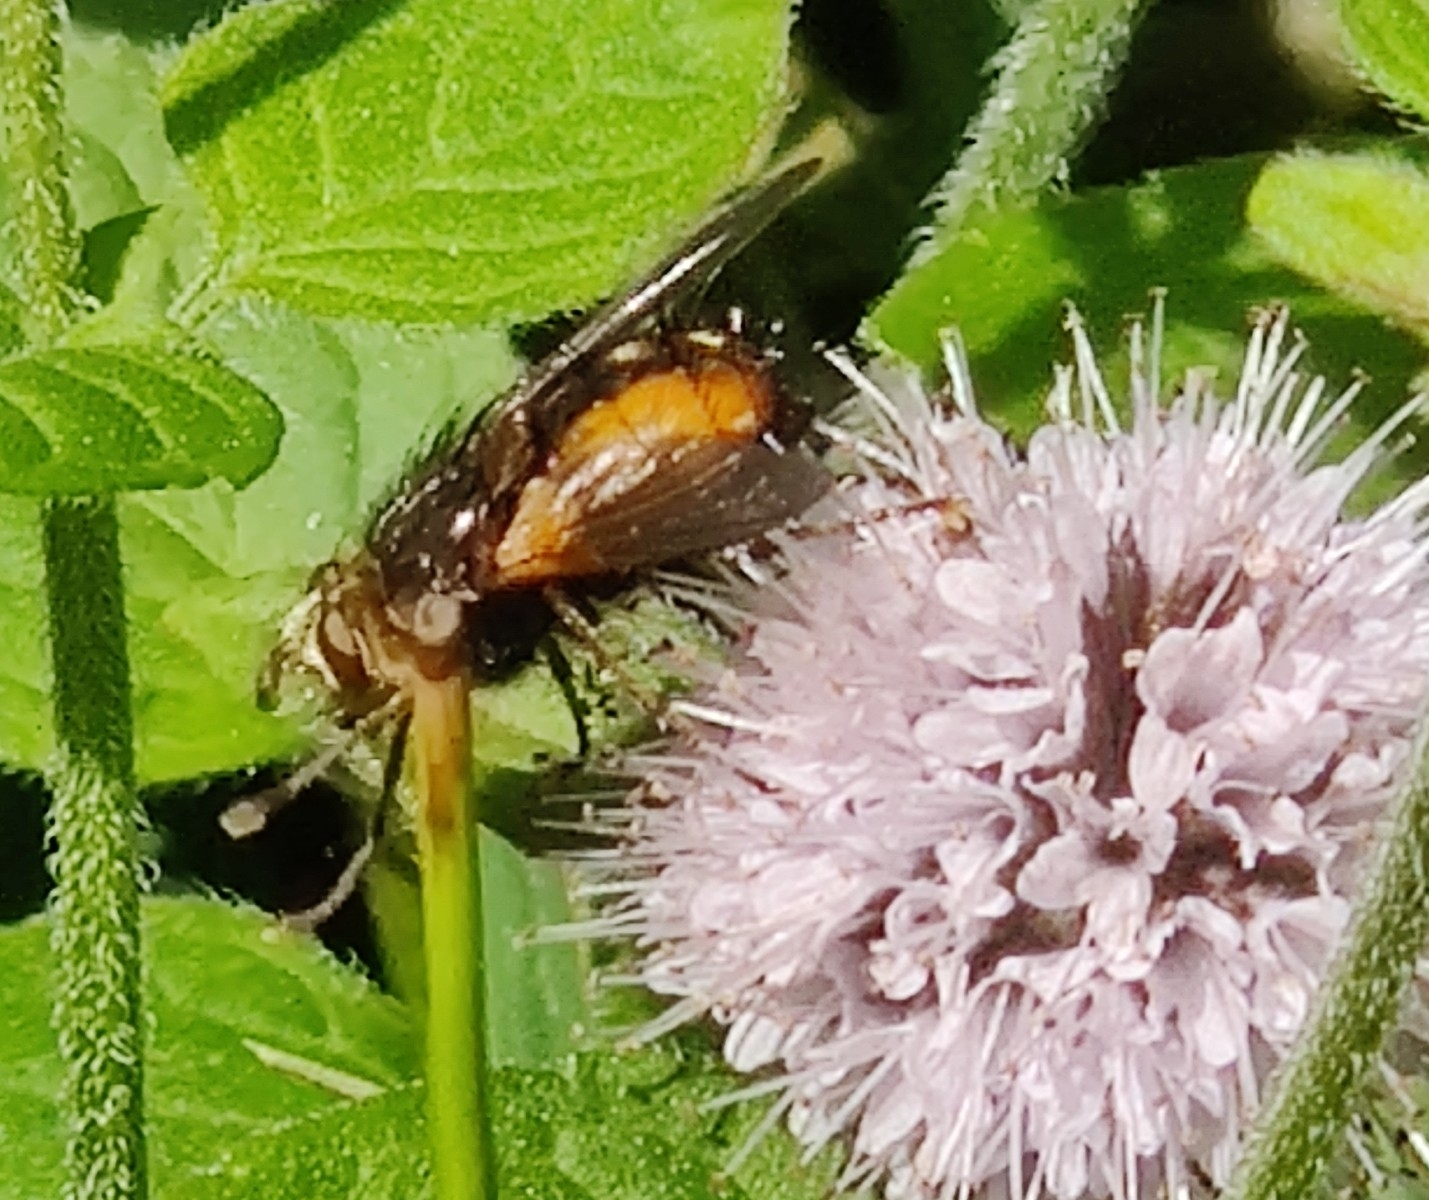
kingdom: Animalia
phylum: Arthropoda
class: Insecta
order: Diptera
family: Tachinidae
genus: Tachina
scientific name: Tachina fera
